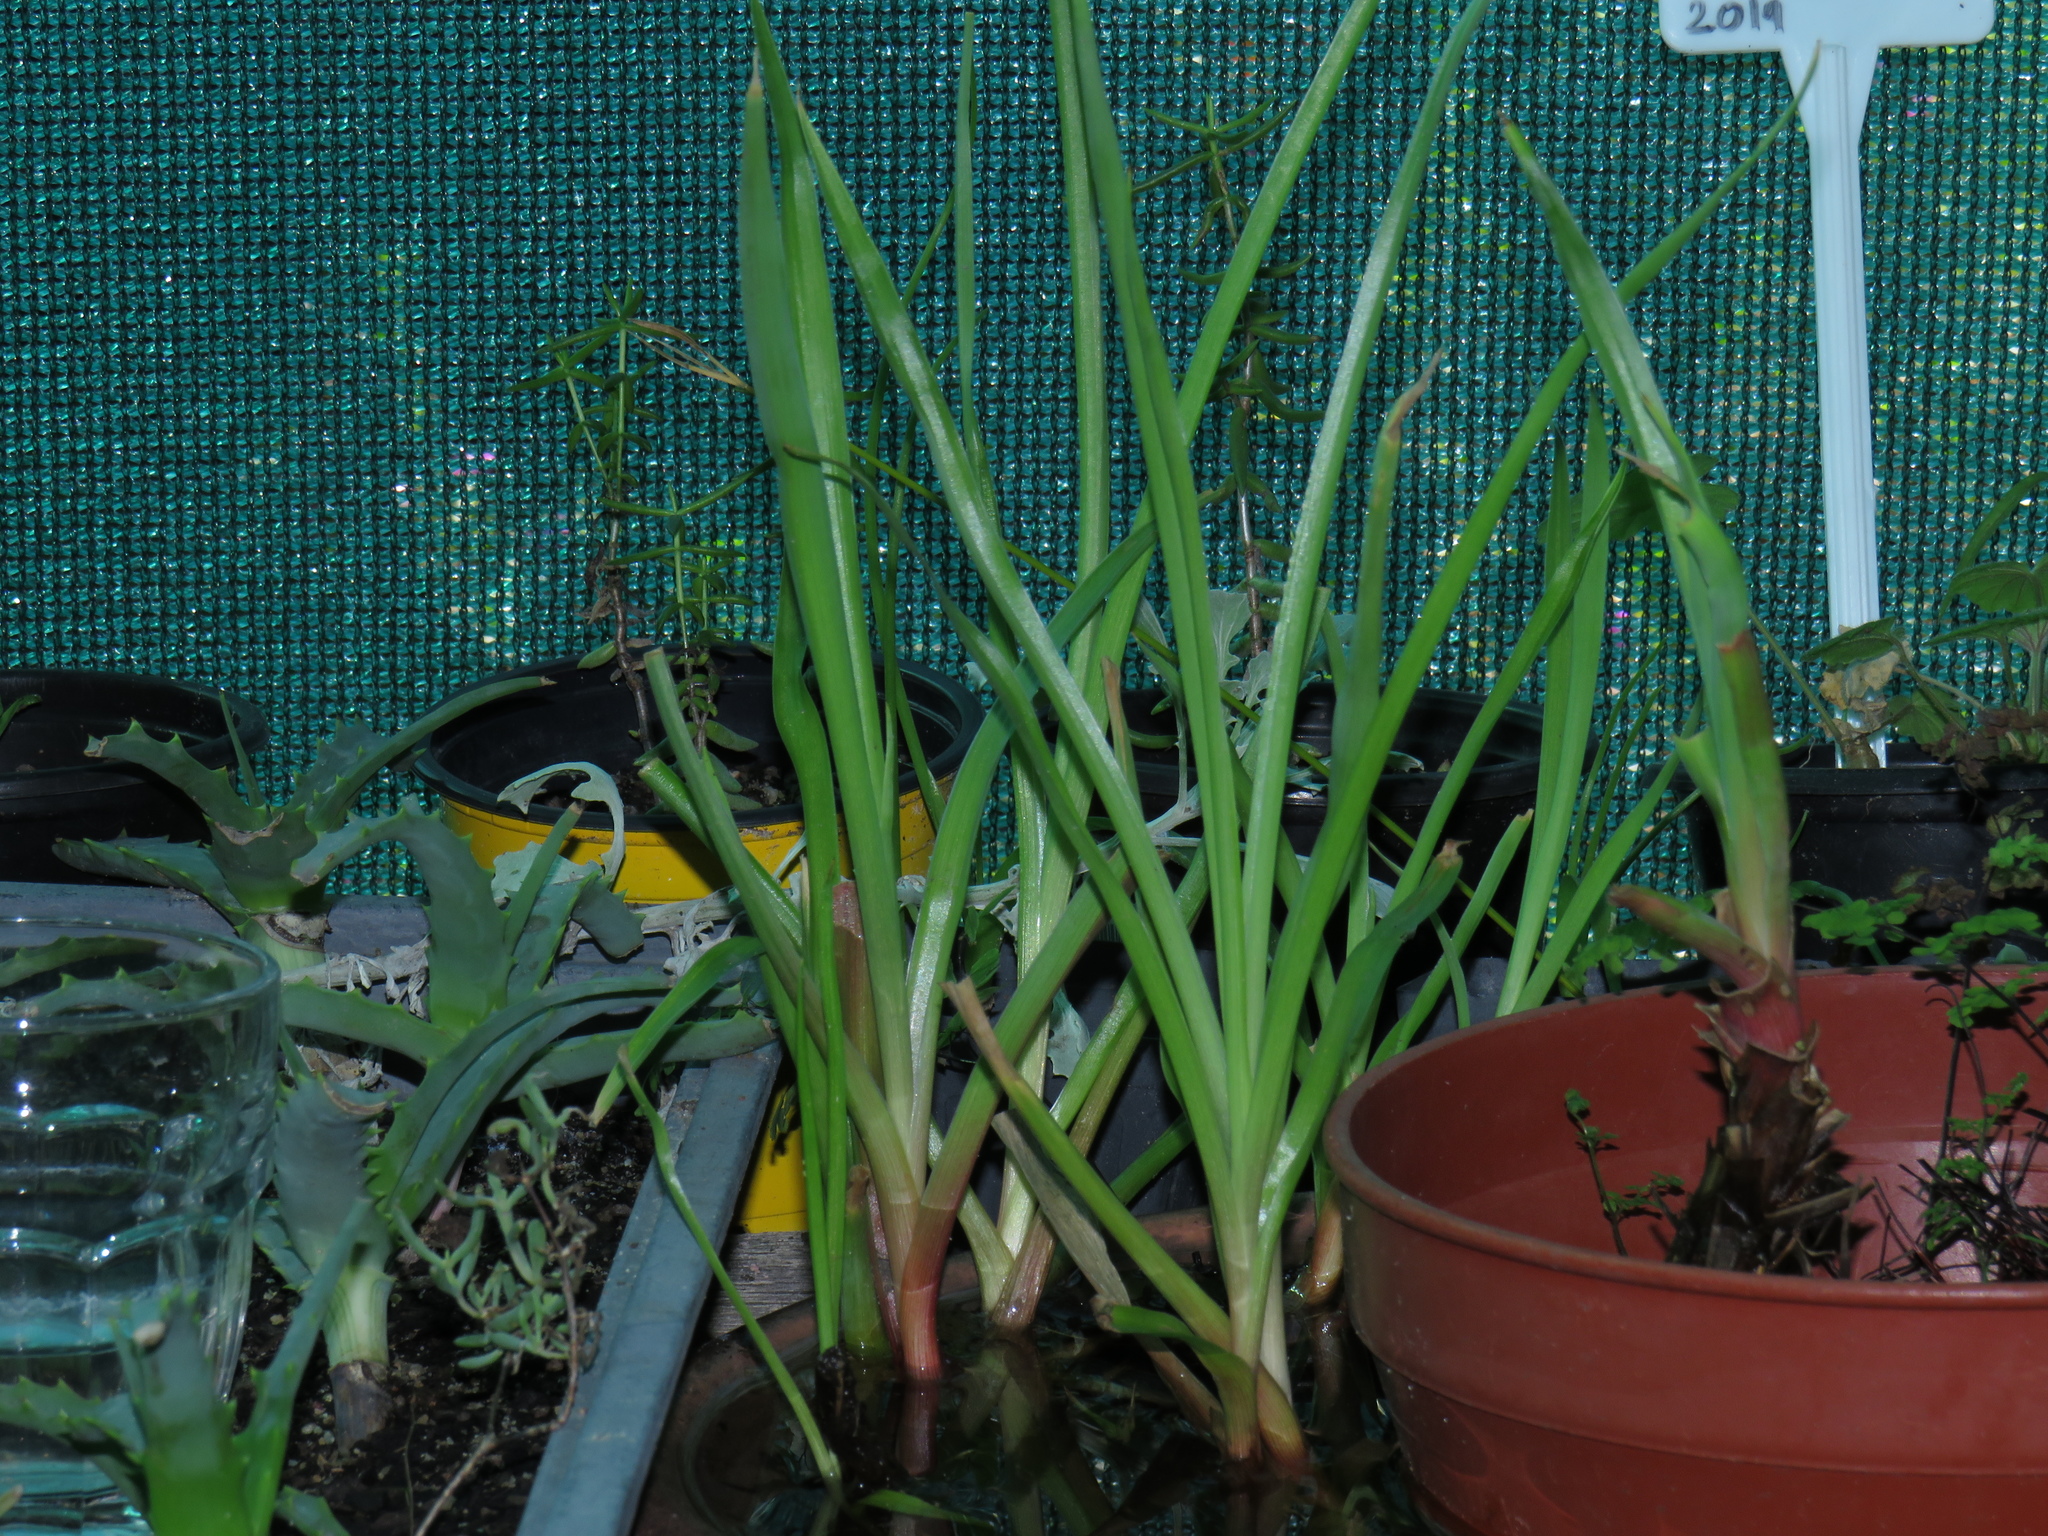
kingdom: Plantae
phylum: Tracheophyta
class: Liliopsida
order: Poales
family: Juncaceae
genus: Juncus
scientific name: Juncus lomatophyllus
